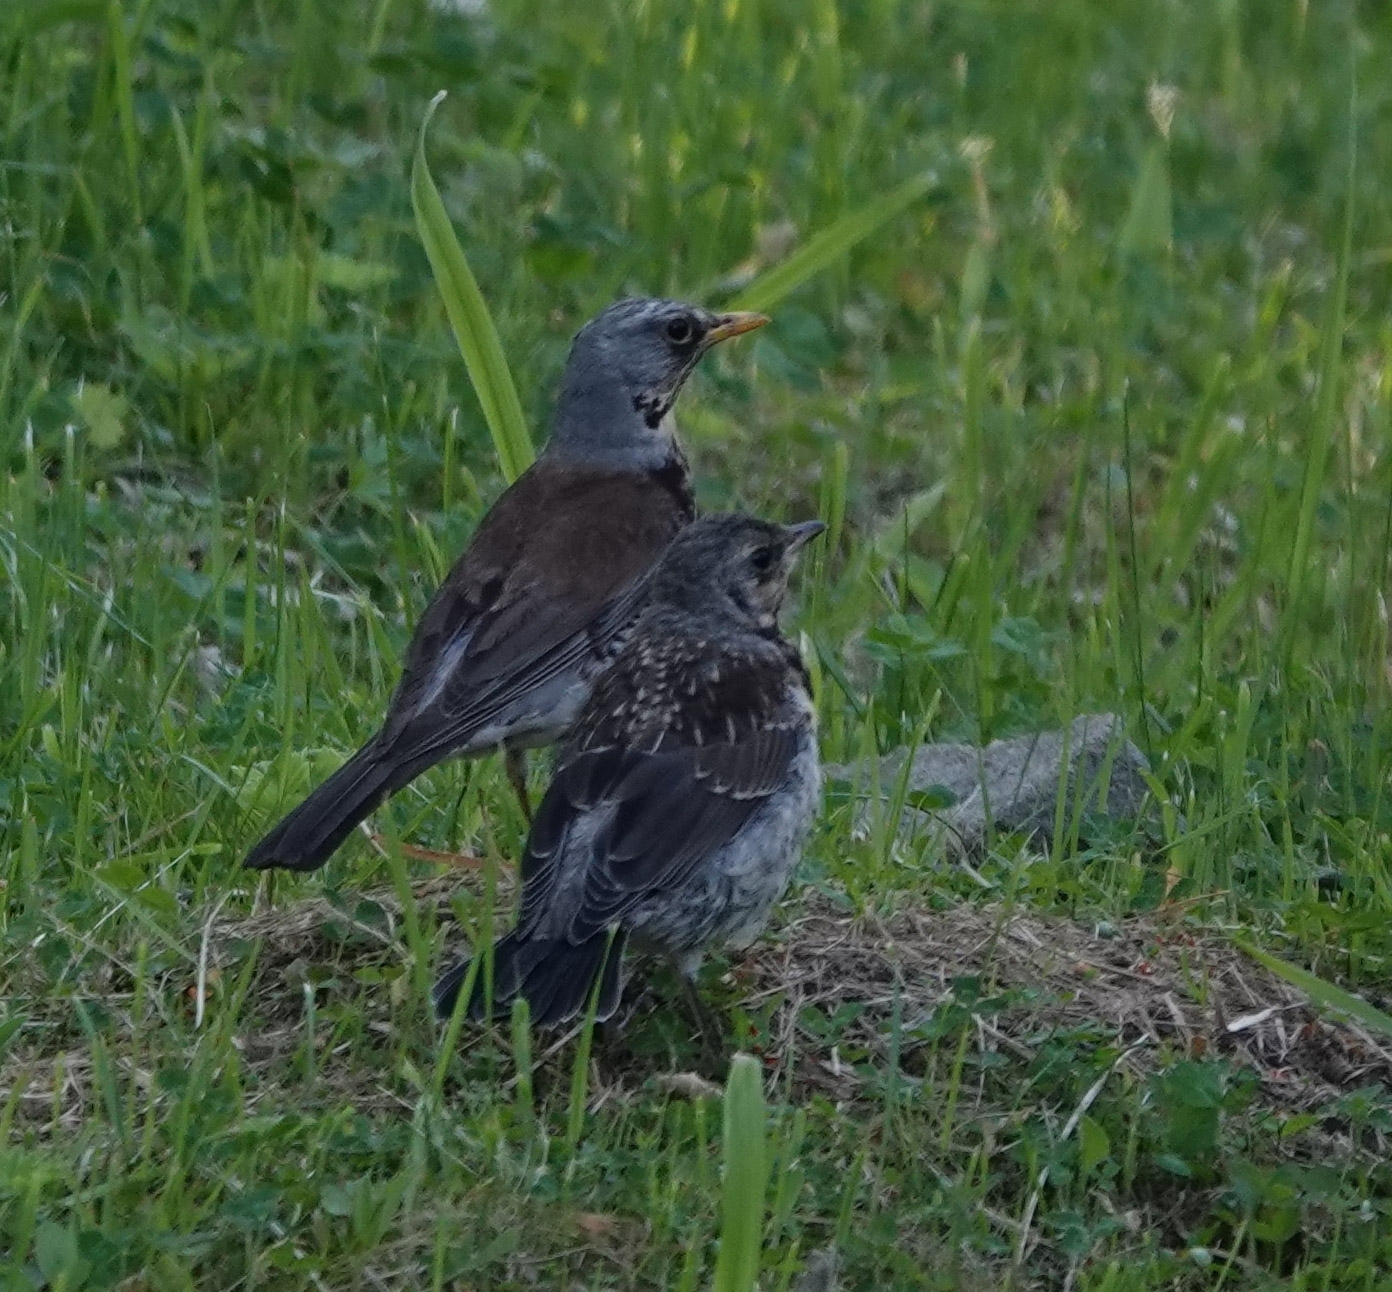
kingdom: Animalia
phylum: Chordata
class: Aves
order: Passeriformes
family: Turdidae
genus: Turdus
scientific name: Turdus pilaris
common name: Fieldfare
